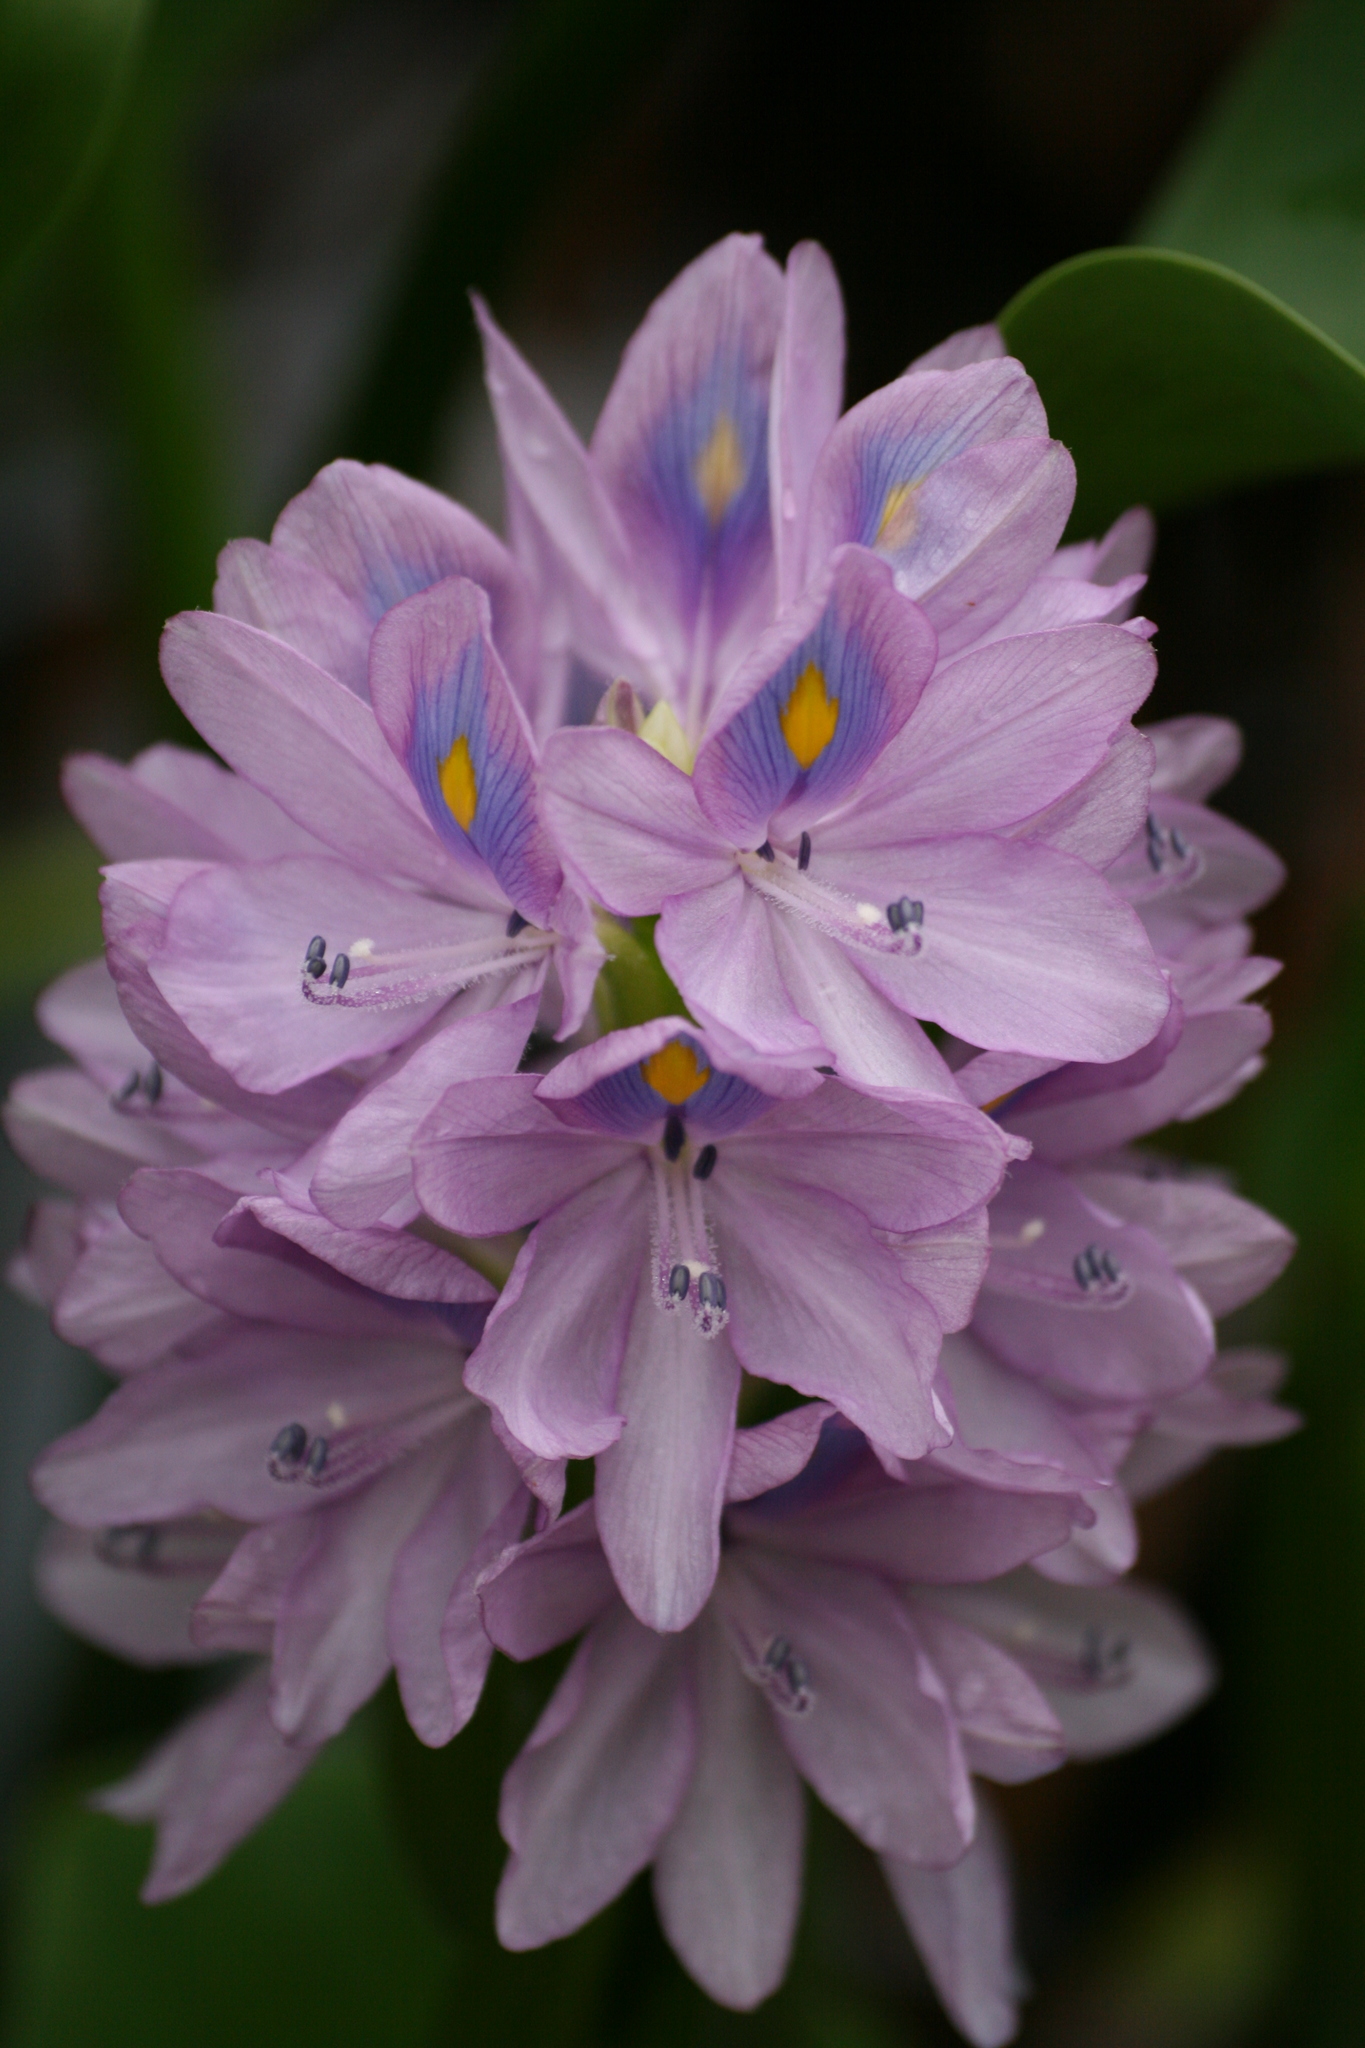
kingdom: Plantae
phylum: Tracheophyta
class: Liliopsida
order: Commelinales
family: Pontederiaceae
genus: Pontederia
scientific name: Pontederia crassipes
